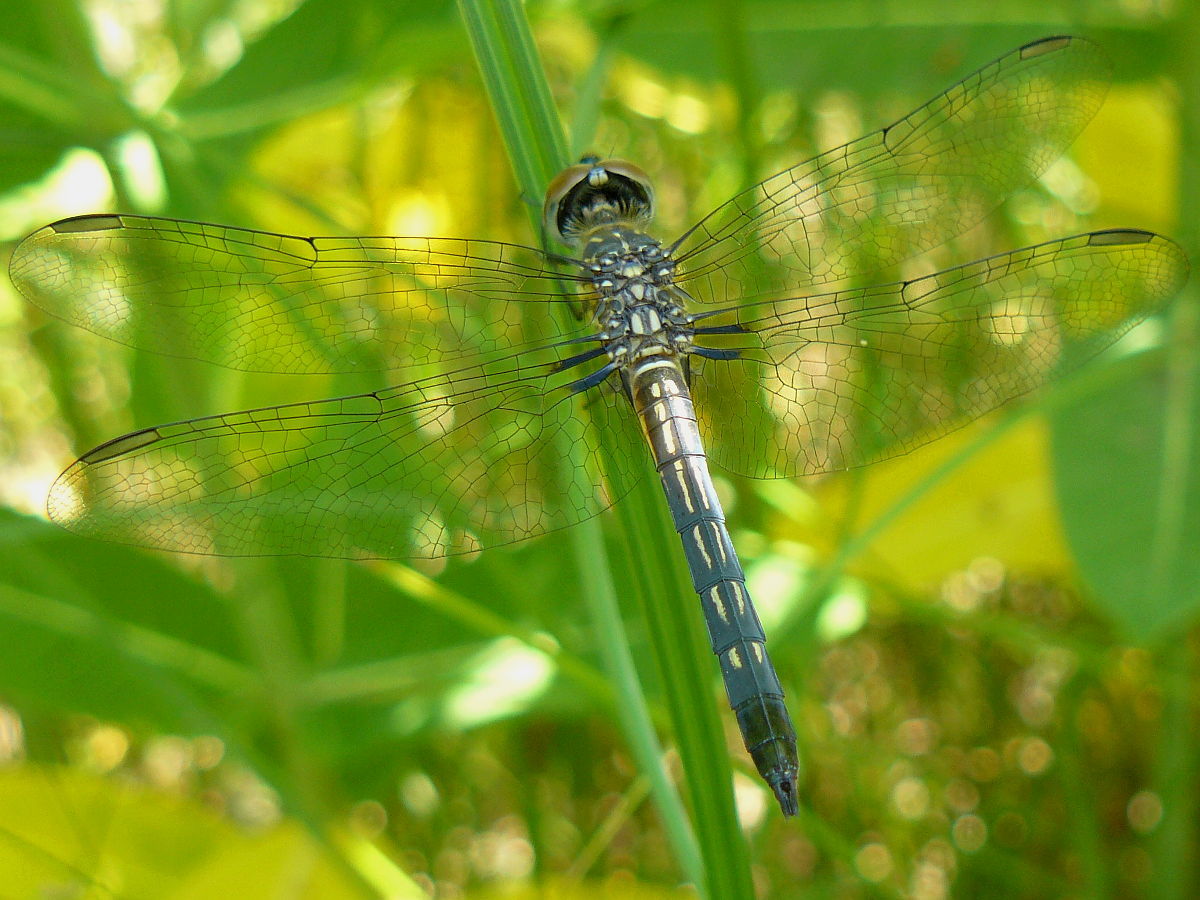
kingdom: Animalia
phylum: Arthropoda
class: Insecta
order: Odonata
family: Libellulidae
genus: Pachydiplax
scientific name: Pachydiplax longipennis
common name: Blue dasher
